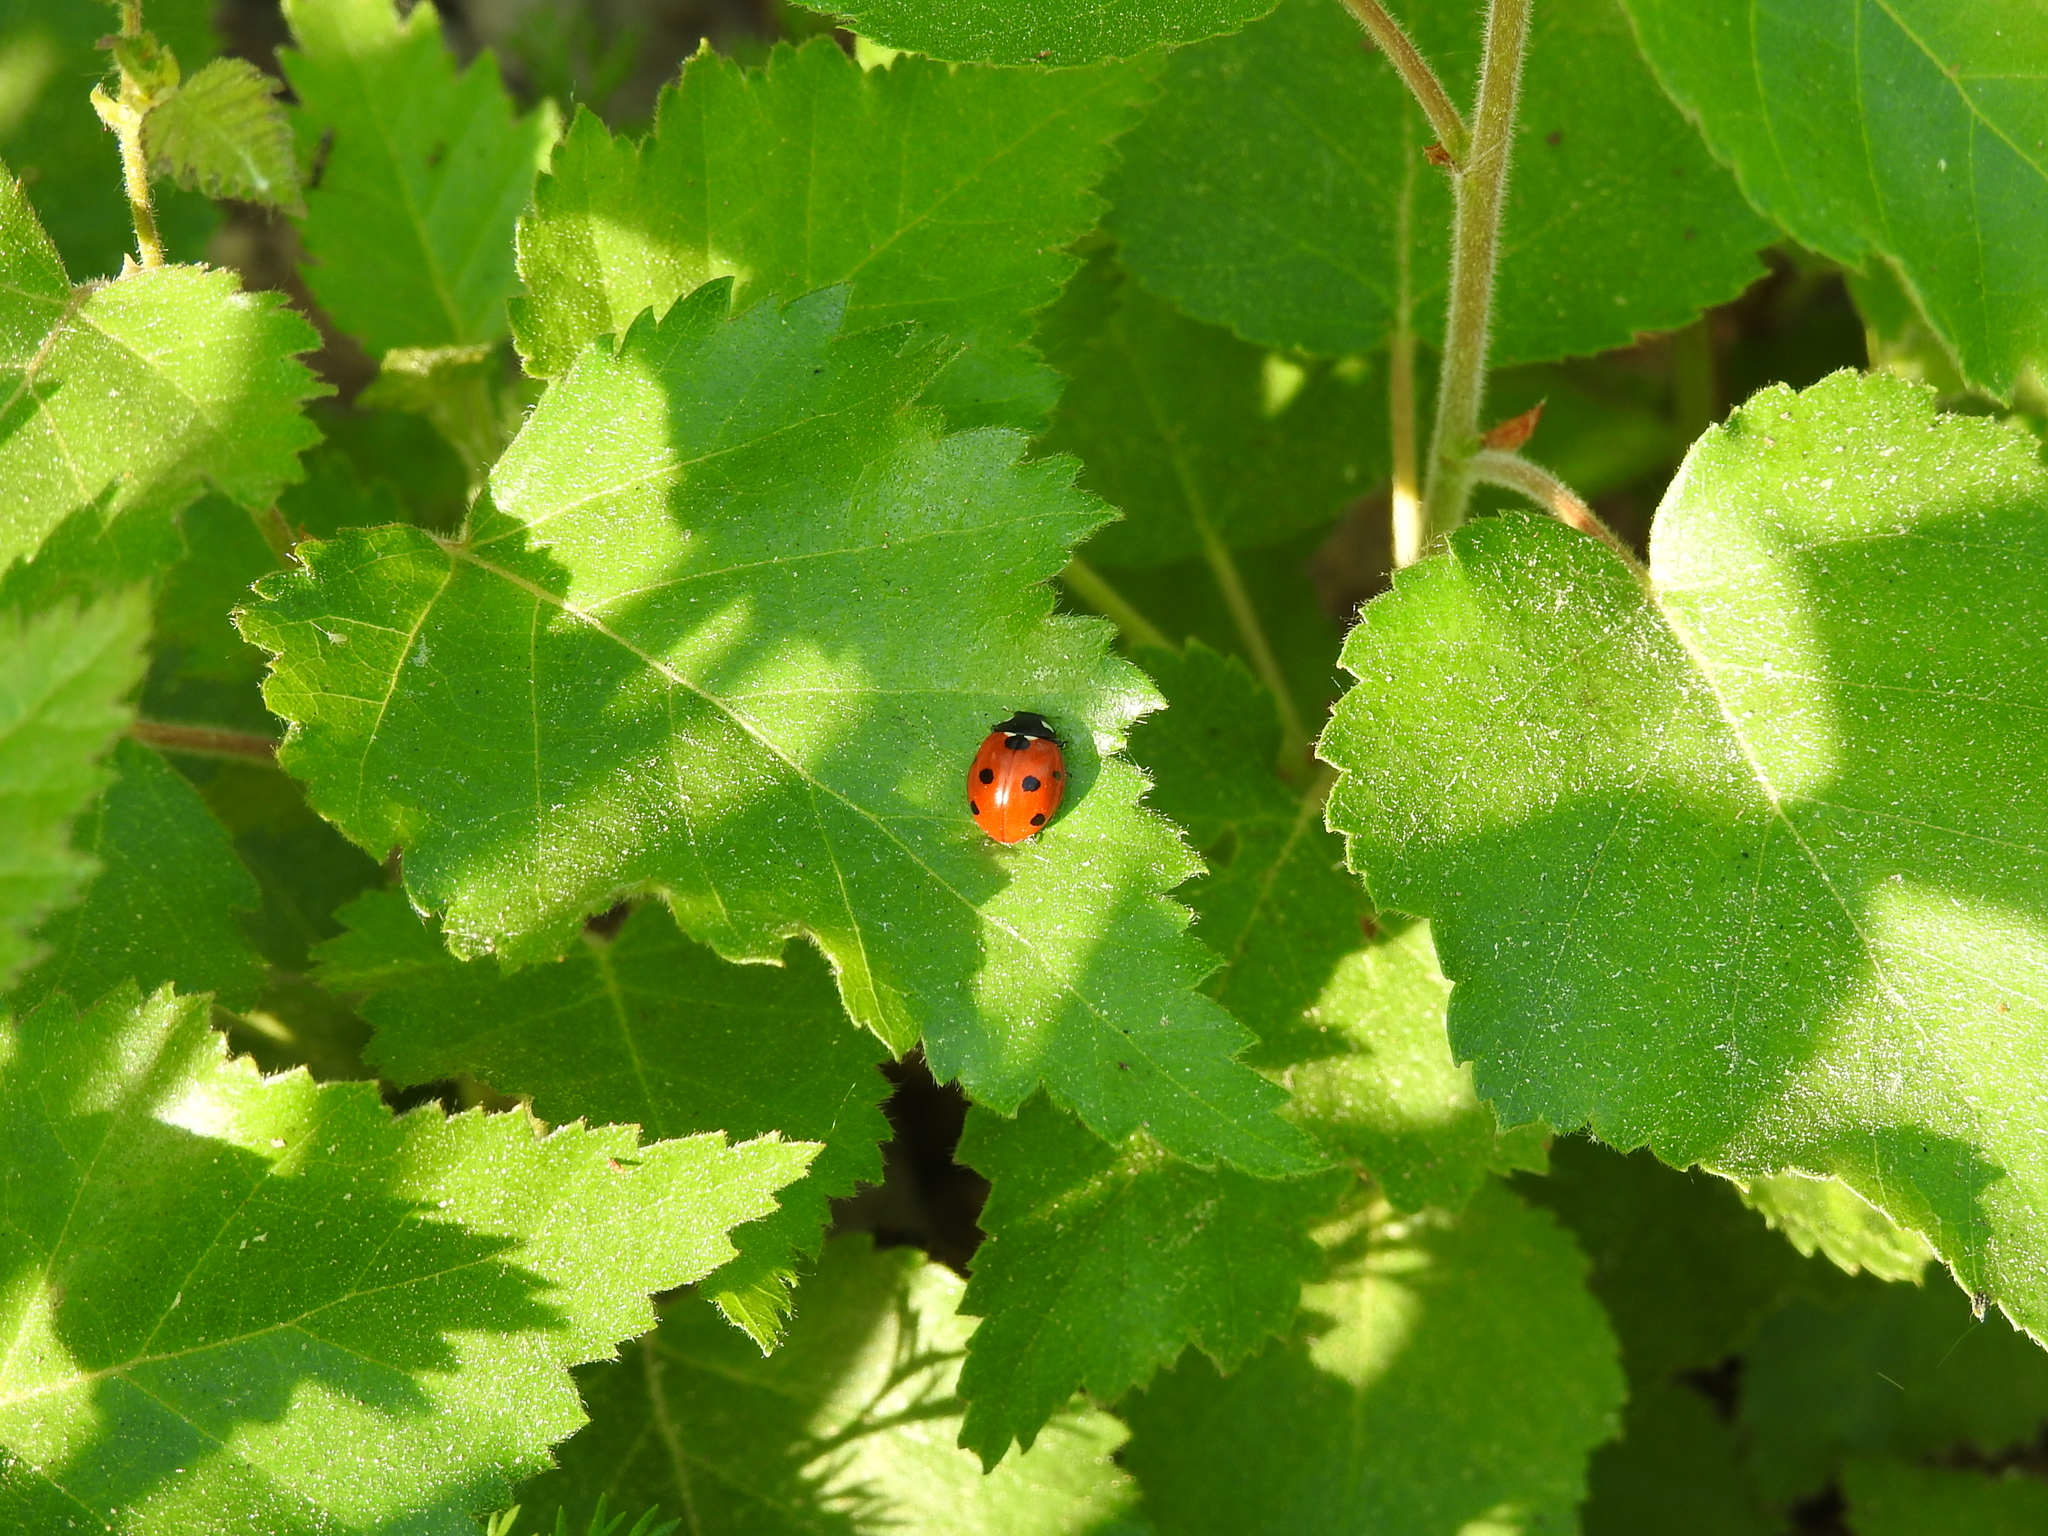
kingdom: Animalia
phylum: Arthropoda
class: Insecta
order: Coleoptera
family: Coccinellidae
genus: Coccinella
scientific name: Coccinella septempunctata
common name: Sevenspotted lady beetle
